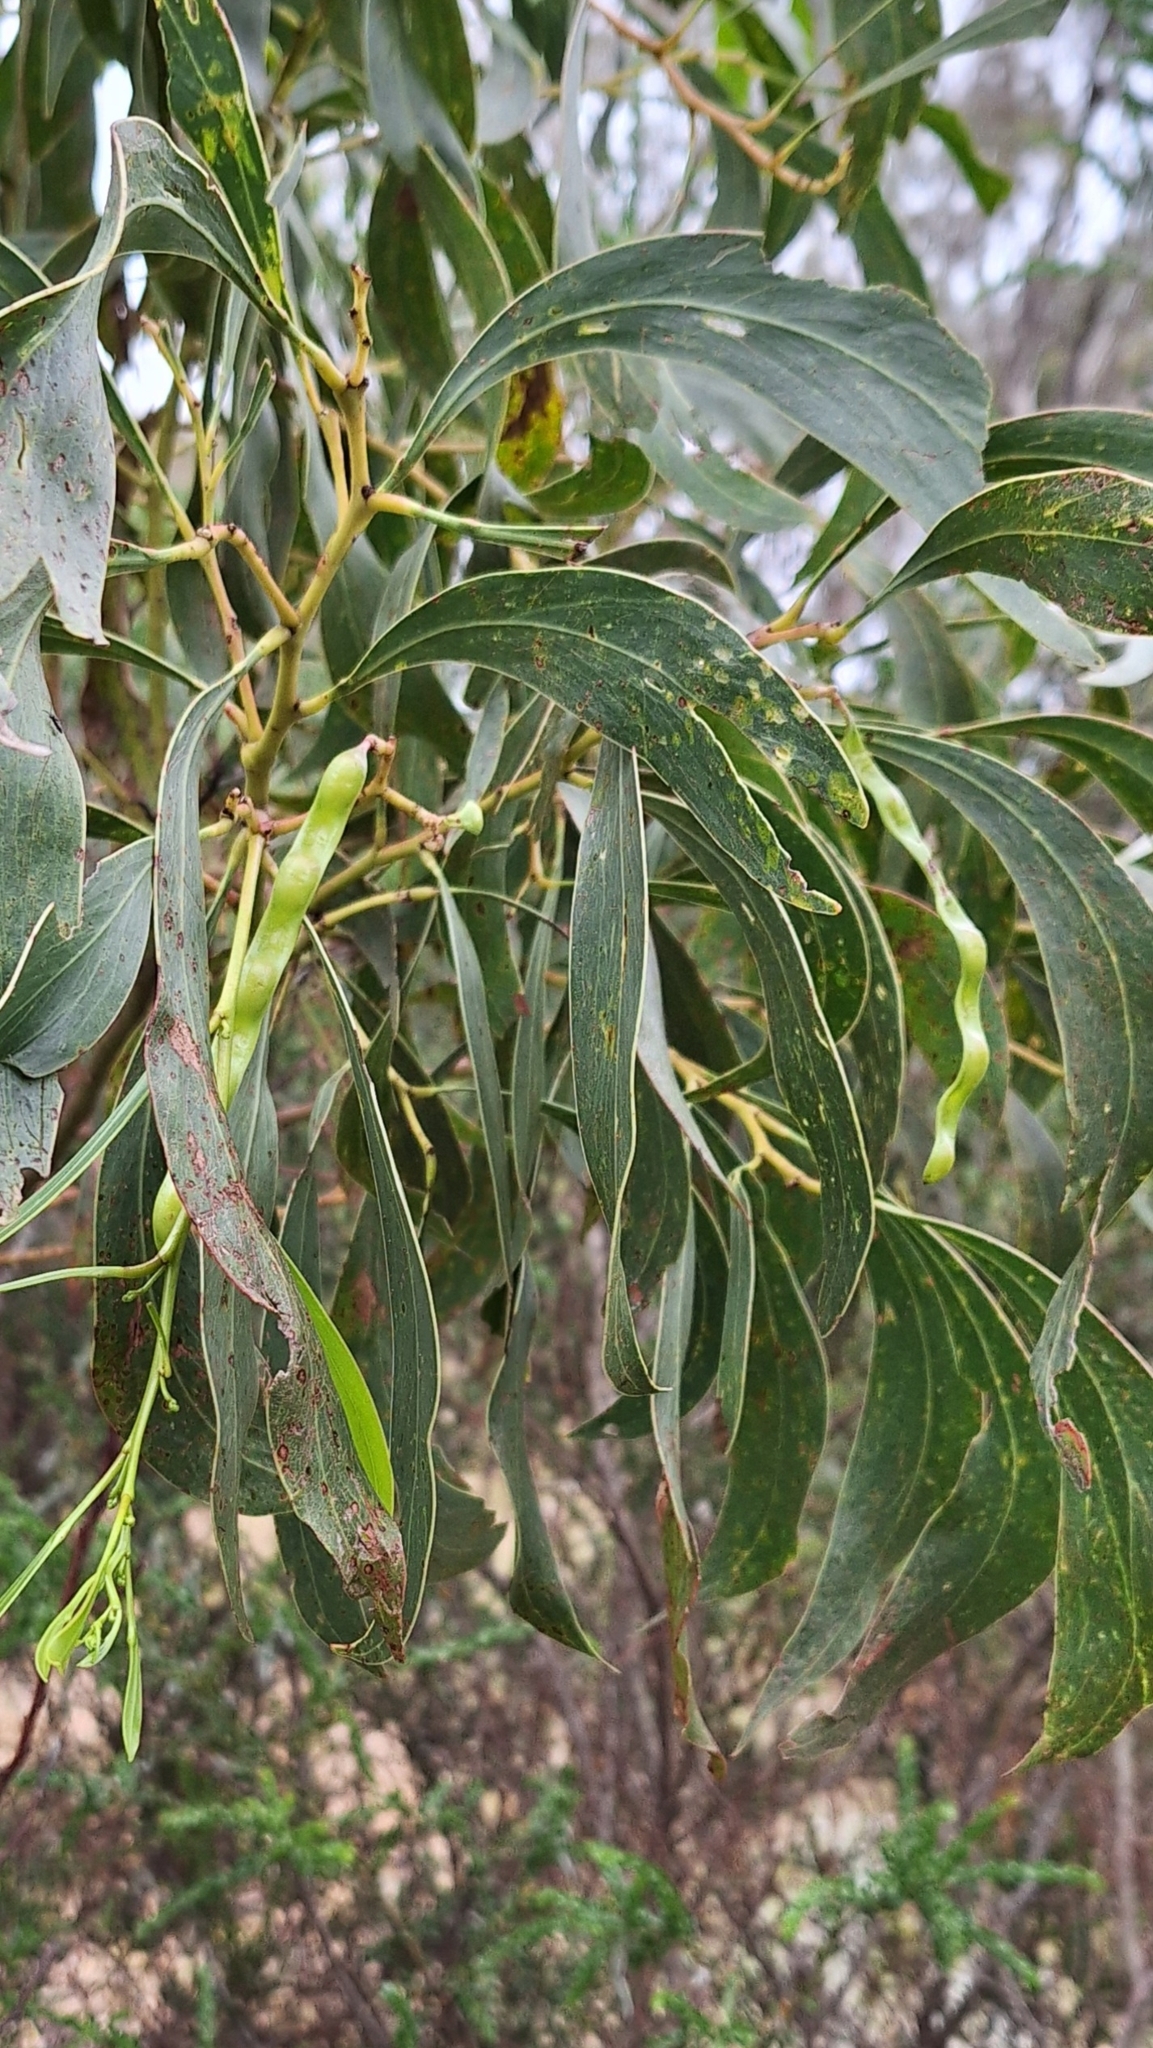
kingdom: Plantae
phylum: Tracheophyta
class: Magnoliopsida
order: Fabales
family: Fabaceae
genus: Acacia
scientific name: Acacia pycnantha
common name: Golden wattle
